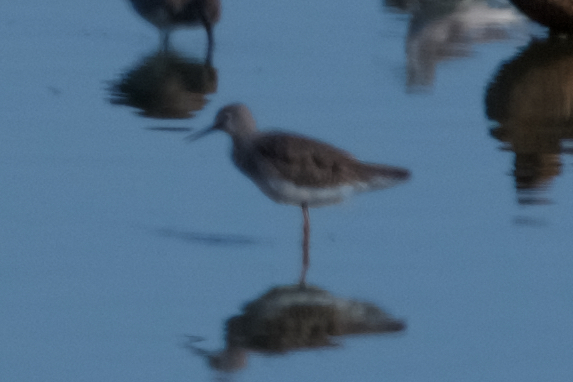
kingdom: Animalia
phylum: Chordata
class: Aves
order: Charadriiformes
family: Scolopacidae
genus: Tringa
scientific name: Tringa flavipes
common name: Lesser yellowlegs
